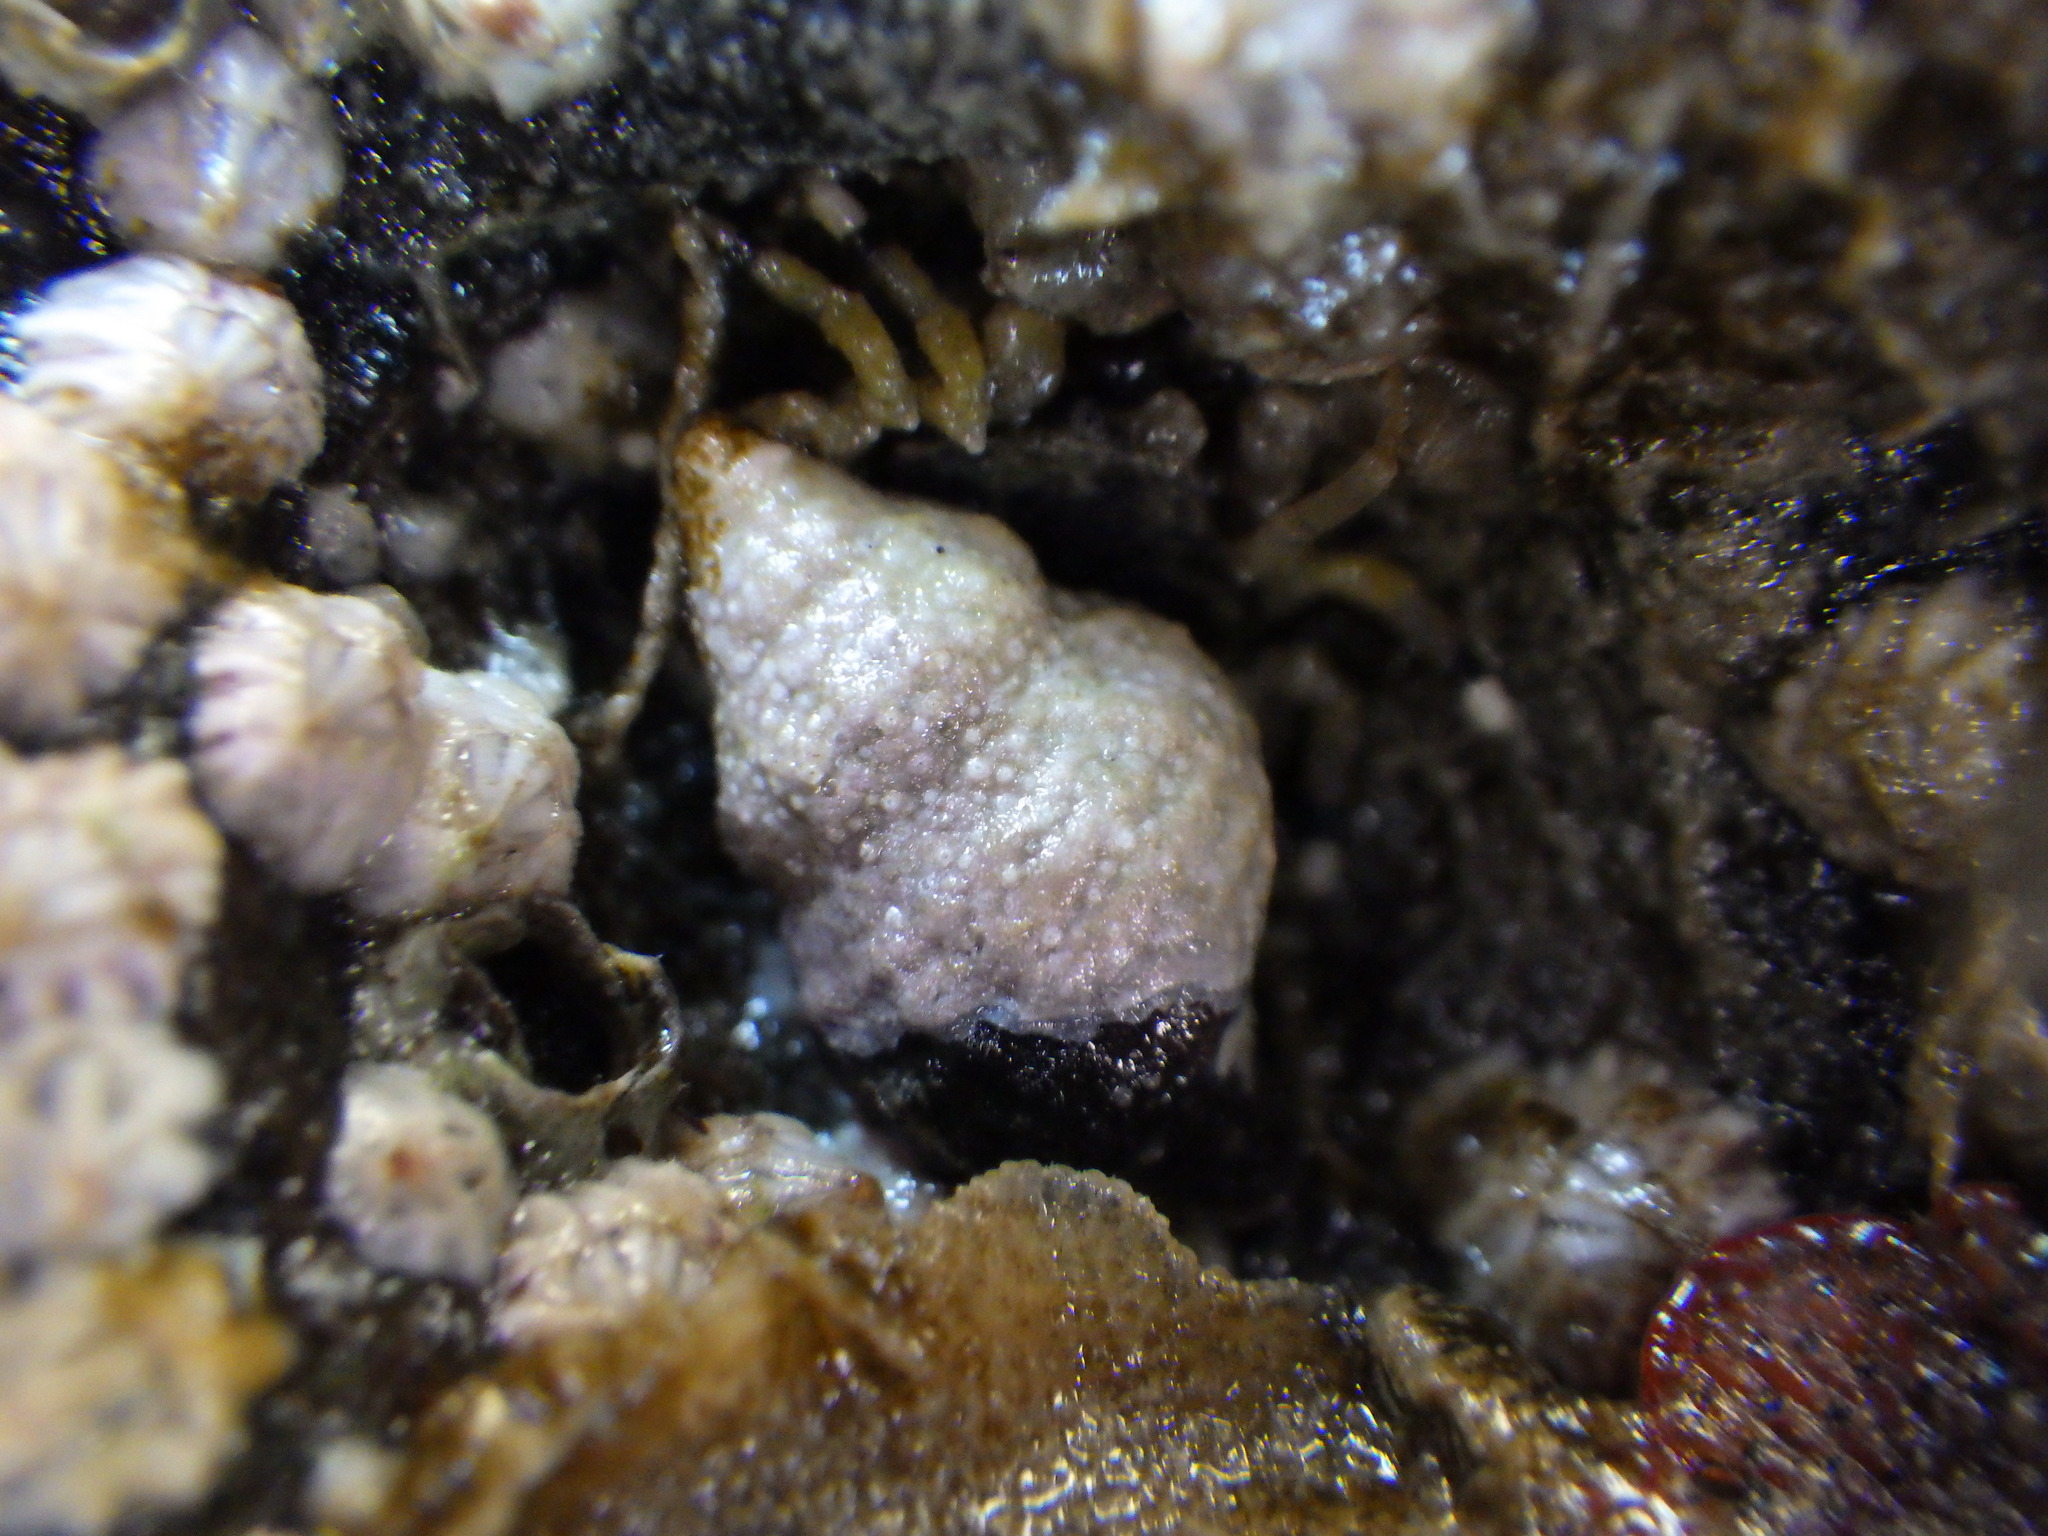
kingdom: Animalia
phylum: Mollusca
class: Gastropoda
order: Neogastropoda
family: Fasciolariidae
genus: Taron
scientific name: Taron dubius
